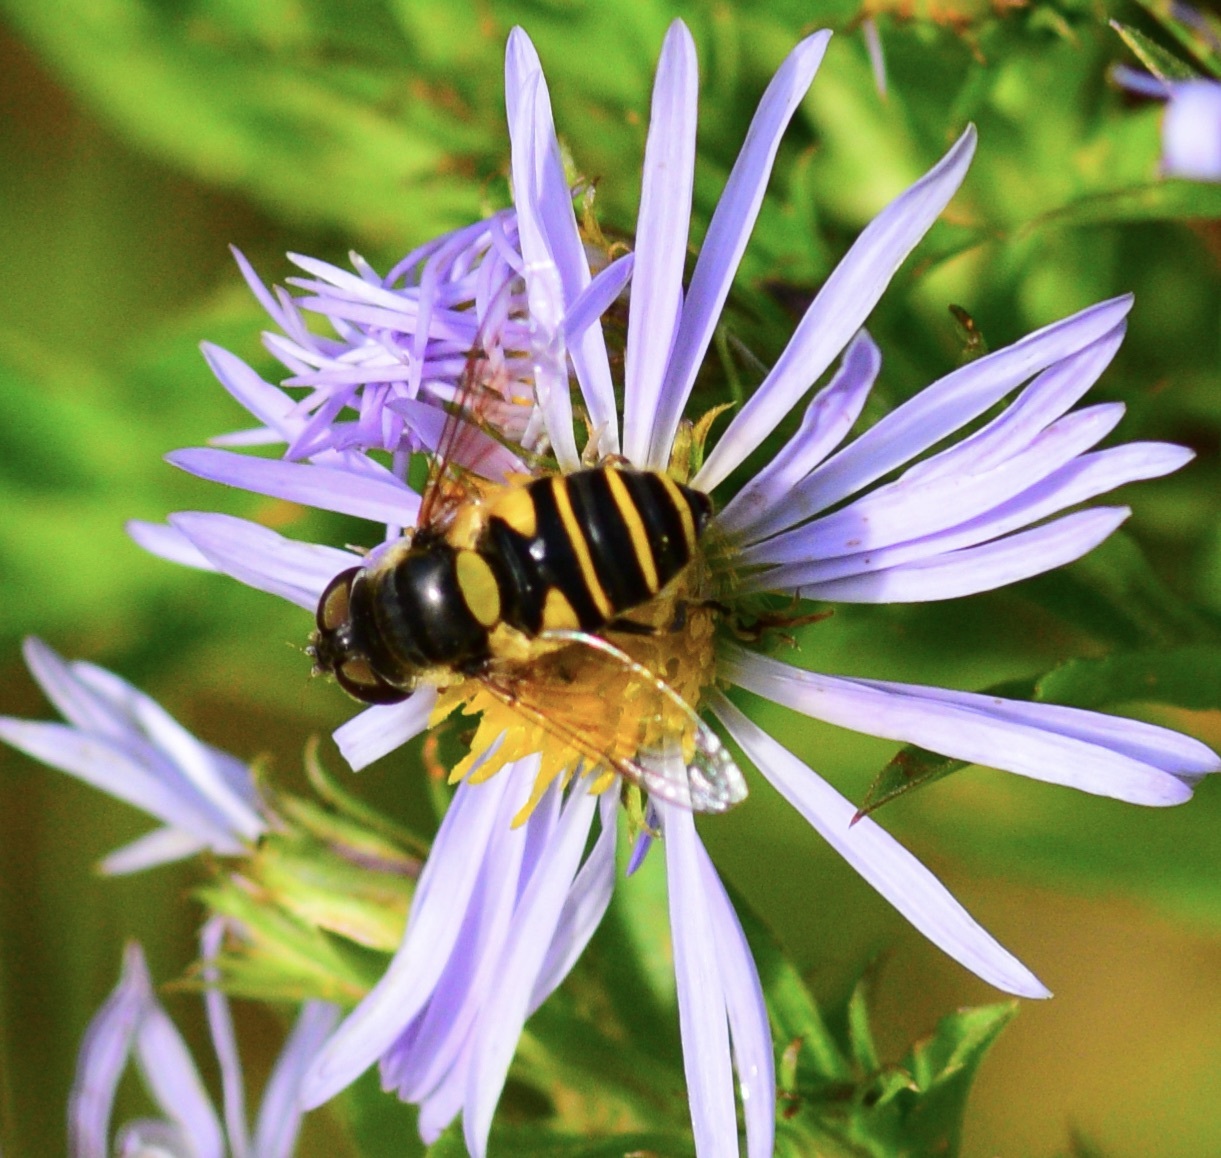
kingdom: Animalia
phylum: Arthropoda
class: Insecta
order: Diptera
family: Syrphidae
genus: Eristalis
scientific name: Eristalis transversa
